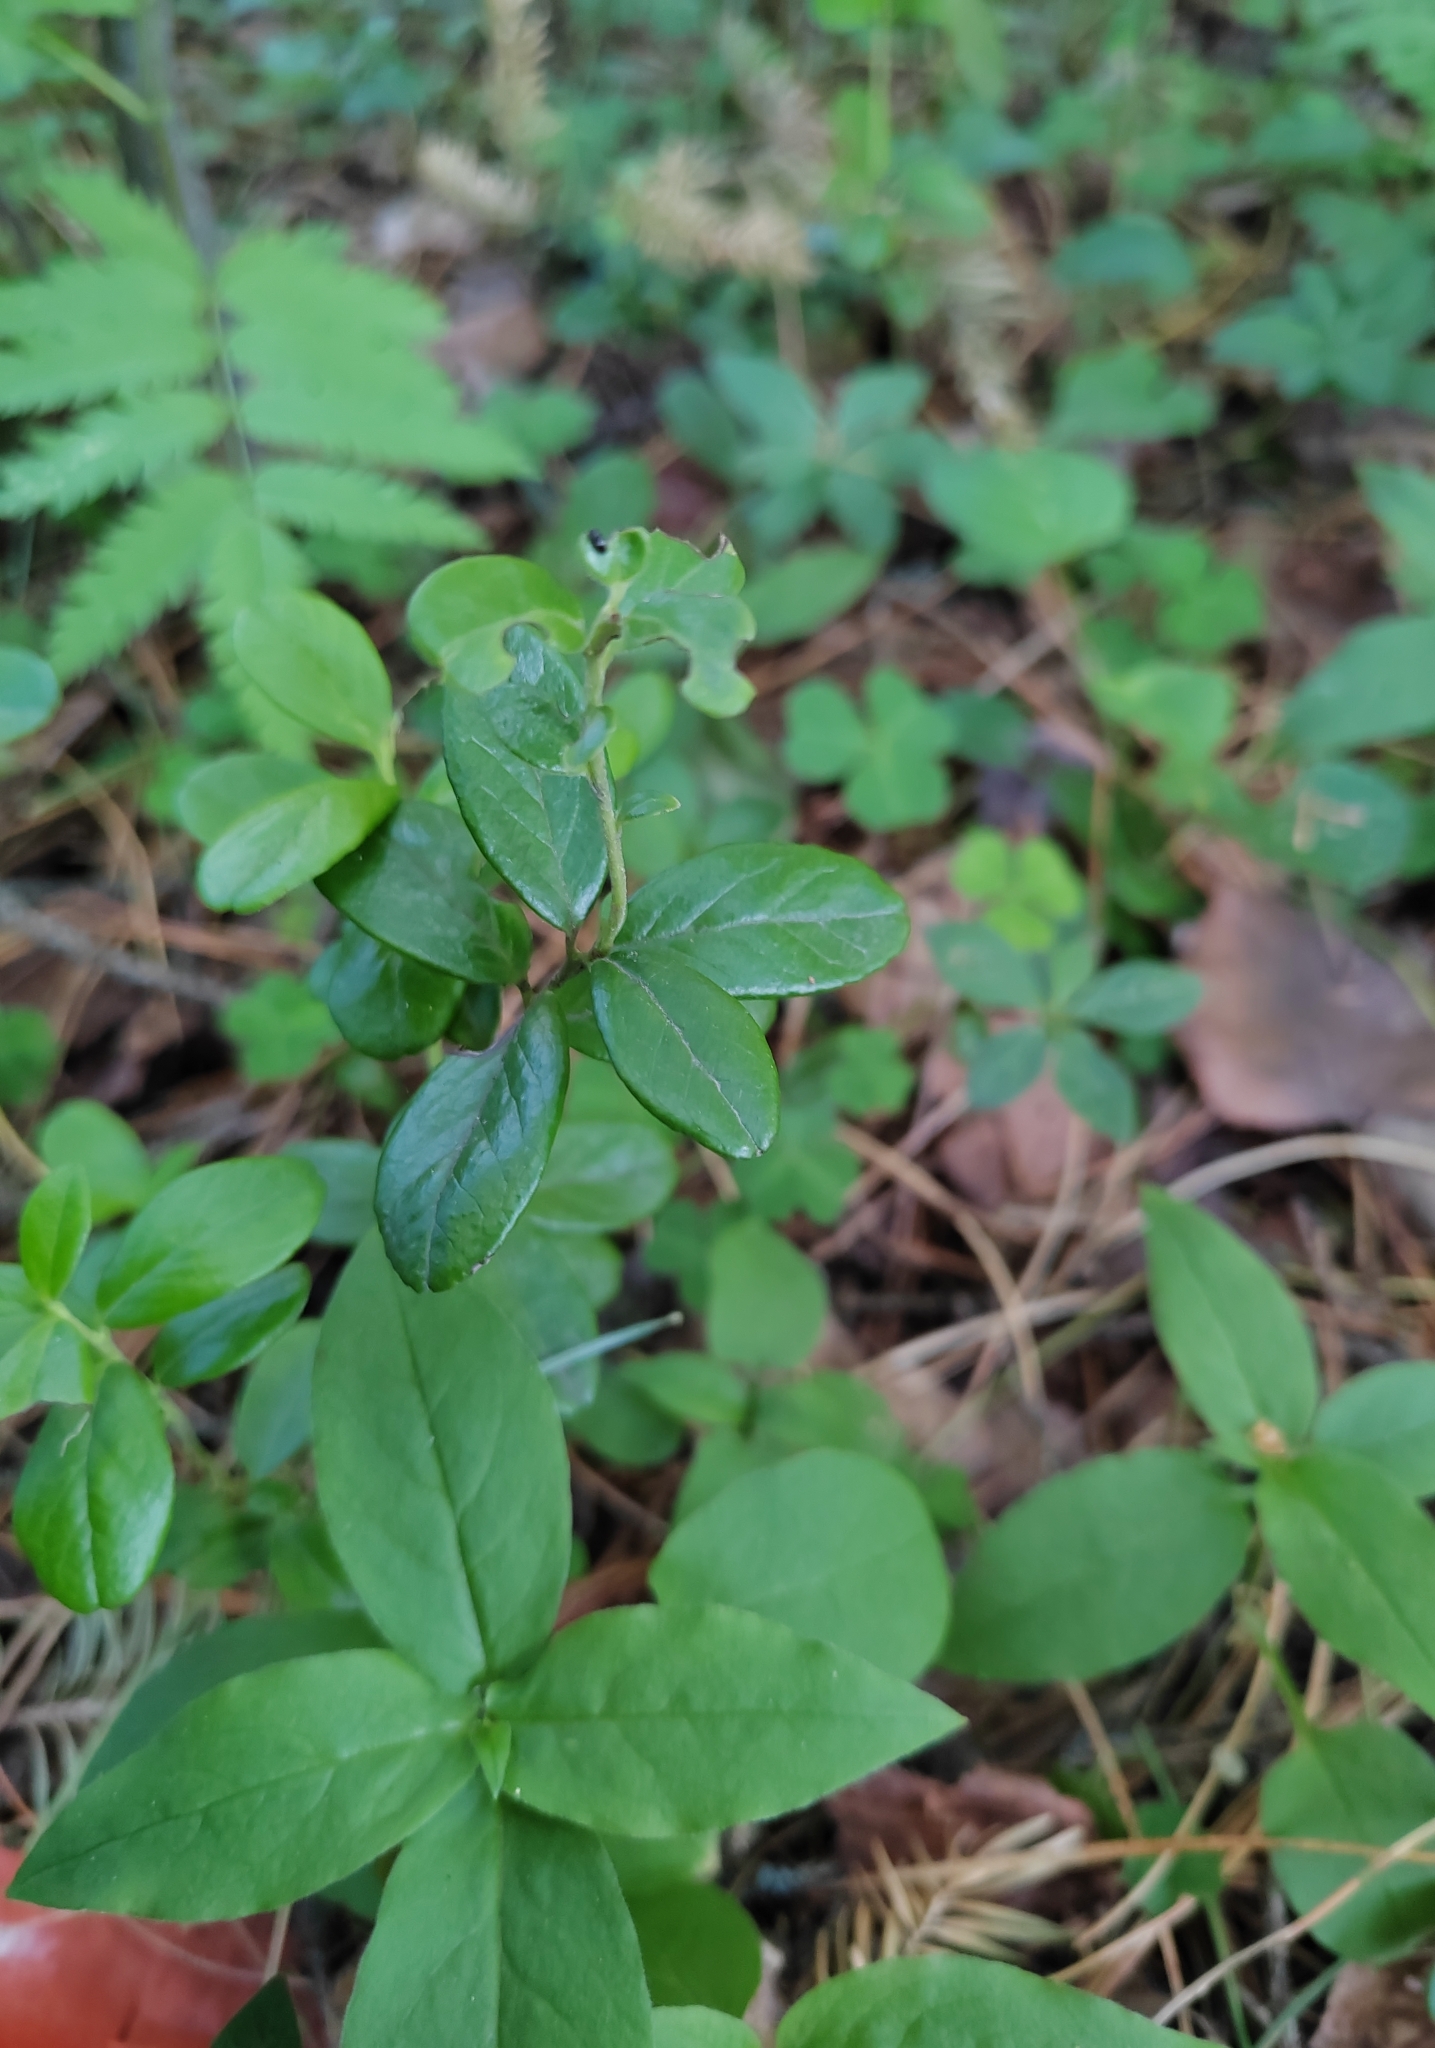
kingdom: Plantae
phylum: Tracheophyta
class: Magnoliopsida
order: Ericales
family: Ericaceae
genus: Vaccinium
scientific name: Vaccinium vitis-idaea
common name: Cowberry
